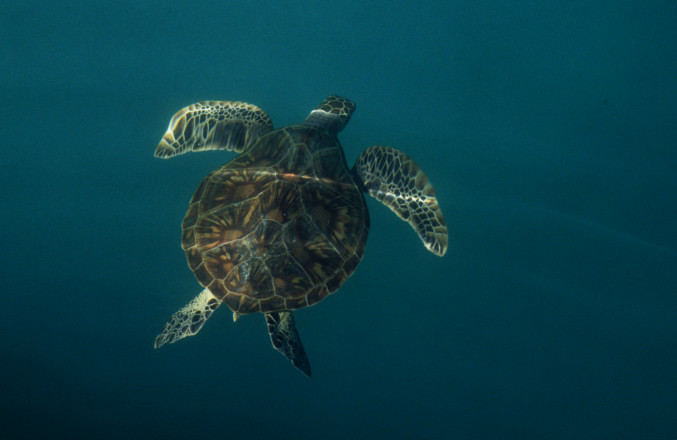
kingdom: Animalia
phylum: Chordata
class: Testudines
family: Cheloniidae
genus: Chelonia
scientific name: Chelonia mydas
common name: Green turtle
